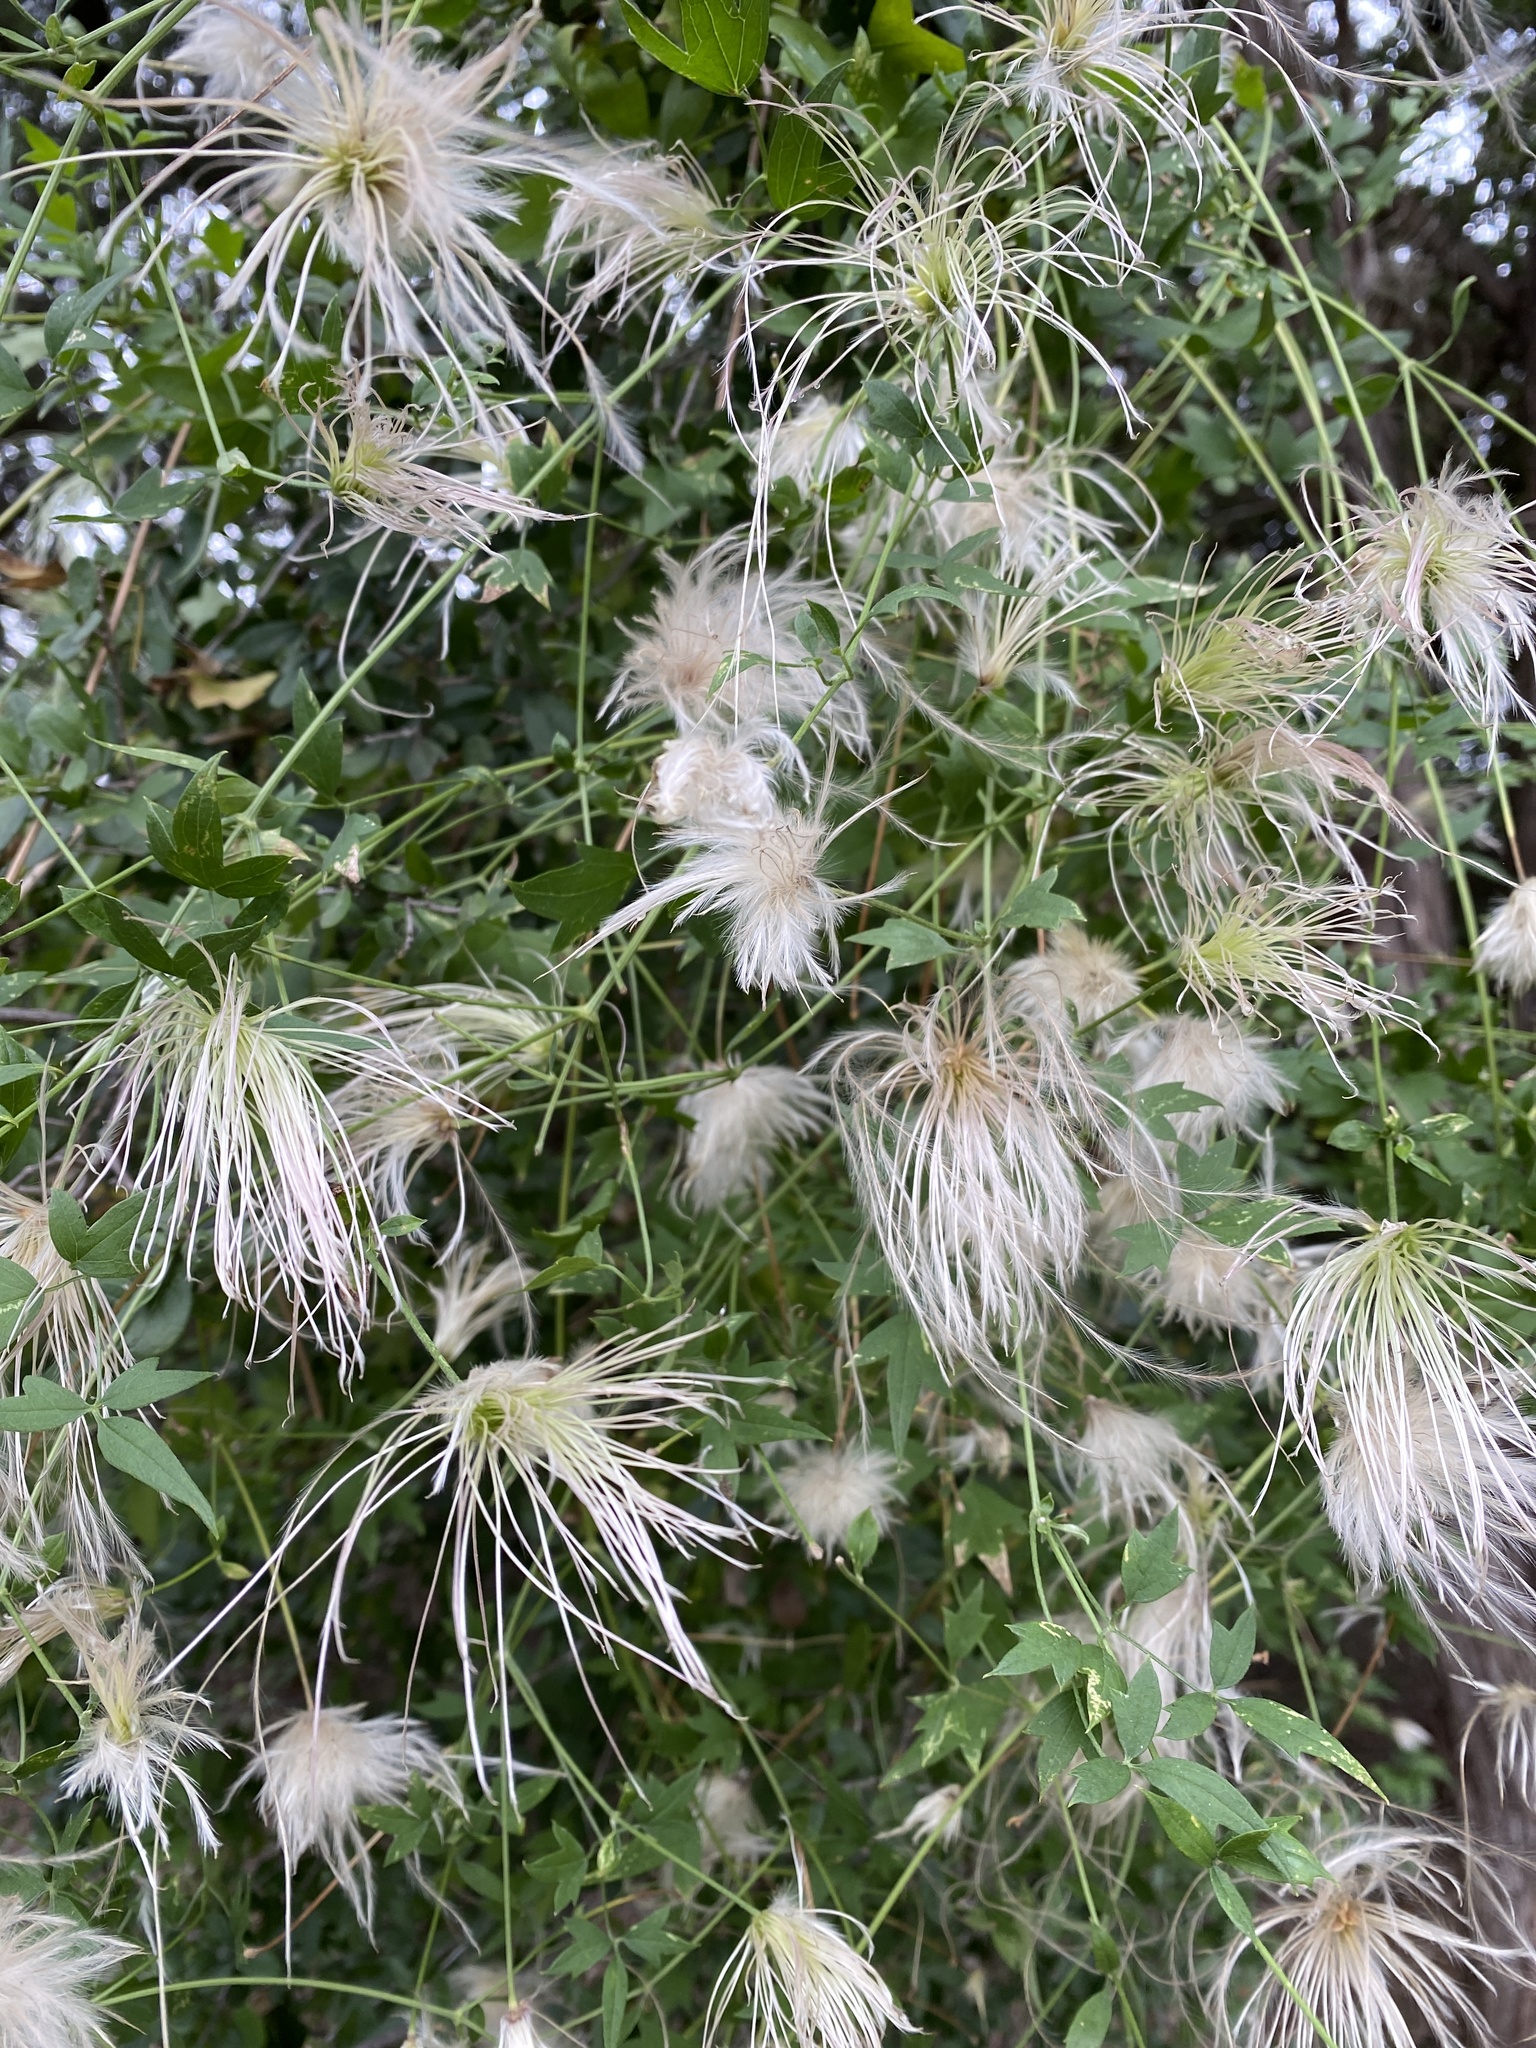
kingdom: Plantae
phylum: Tracheophyta
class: Magnoliopsida
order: Ranunculales
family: Ranunculaceae
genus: Clematis
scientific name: Clematis drummondii
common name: Texas virgin's bower
